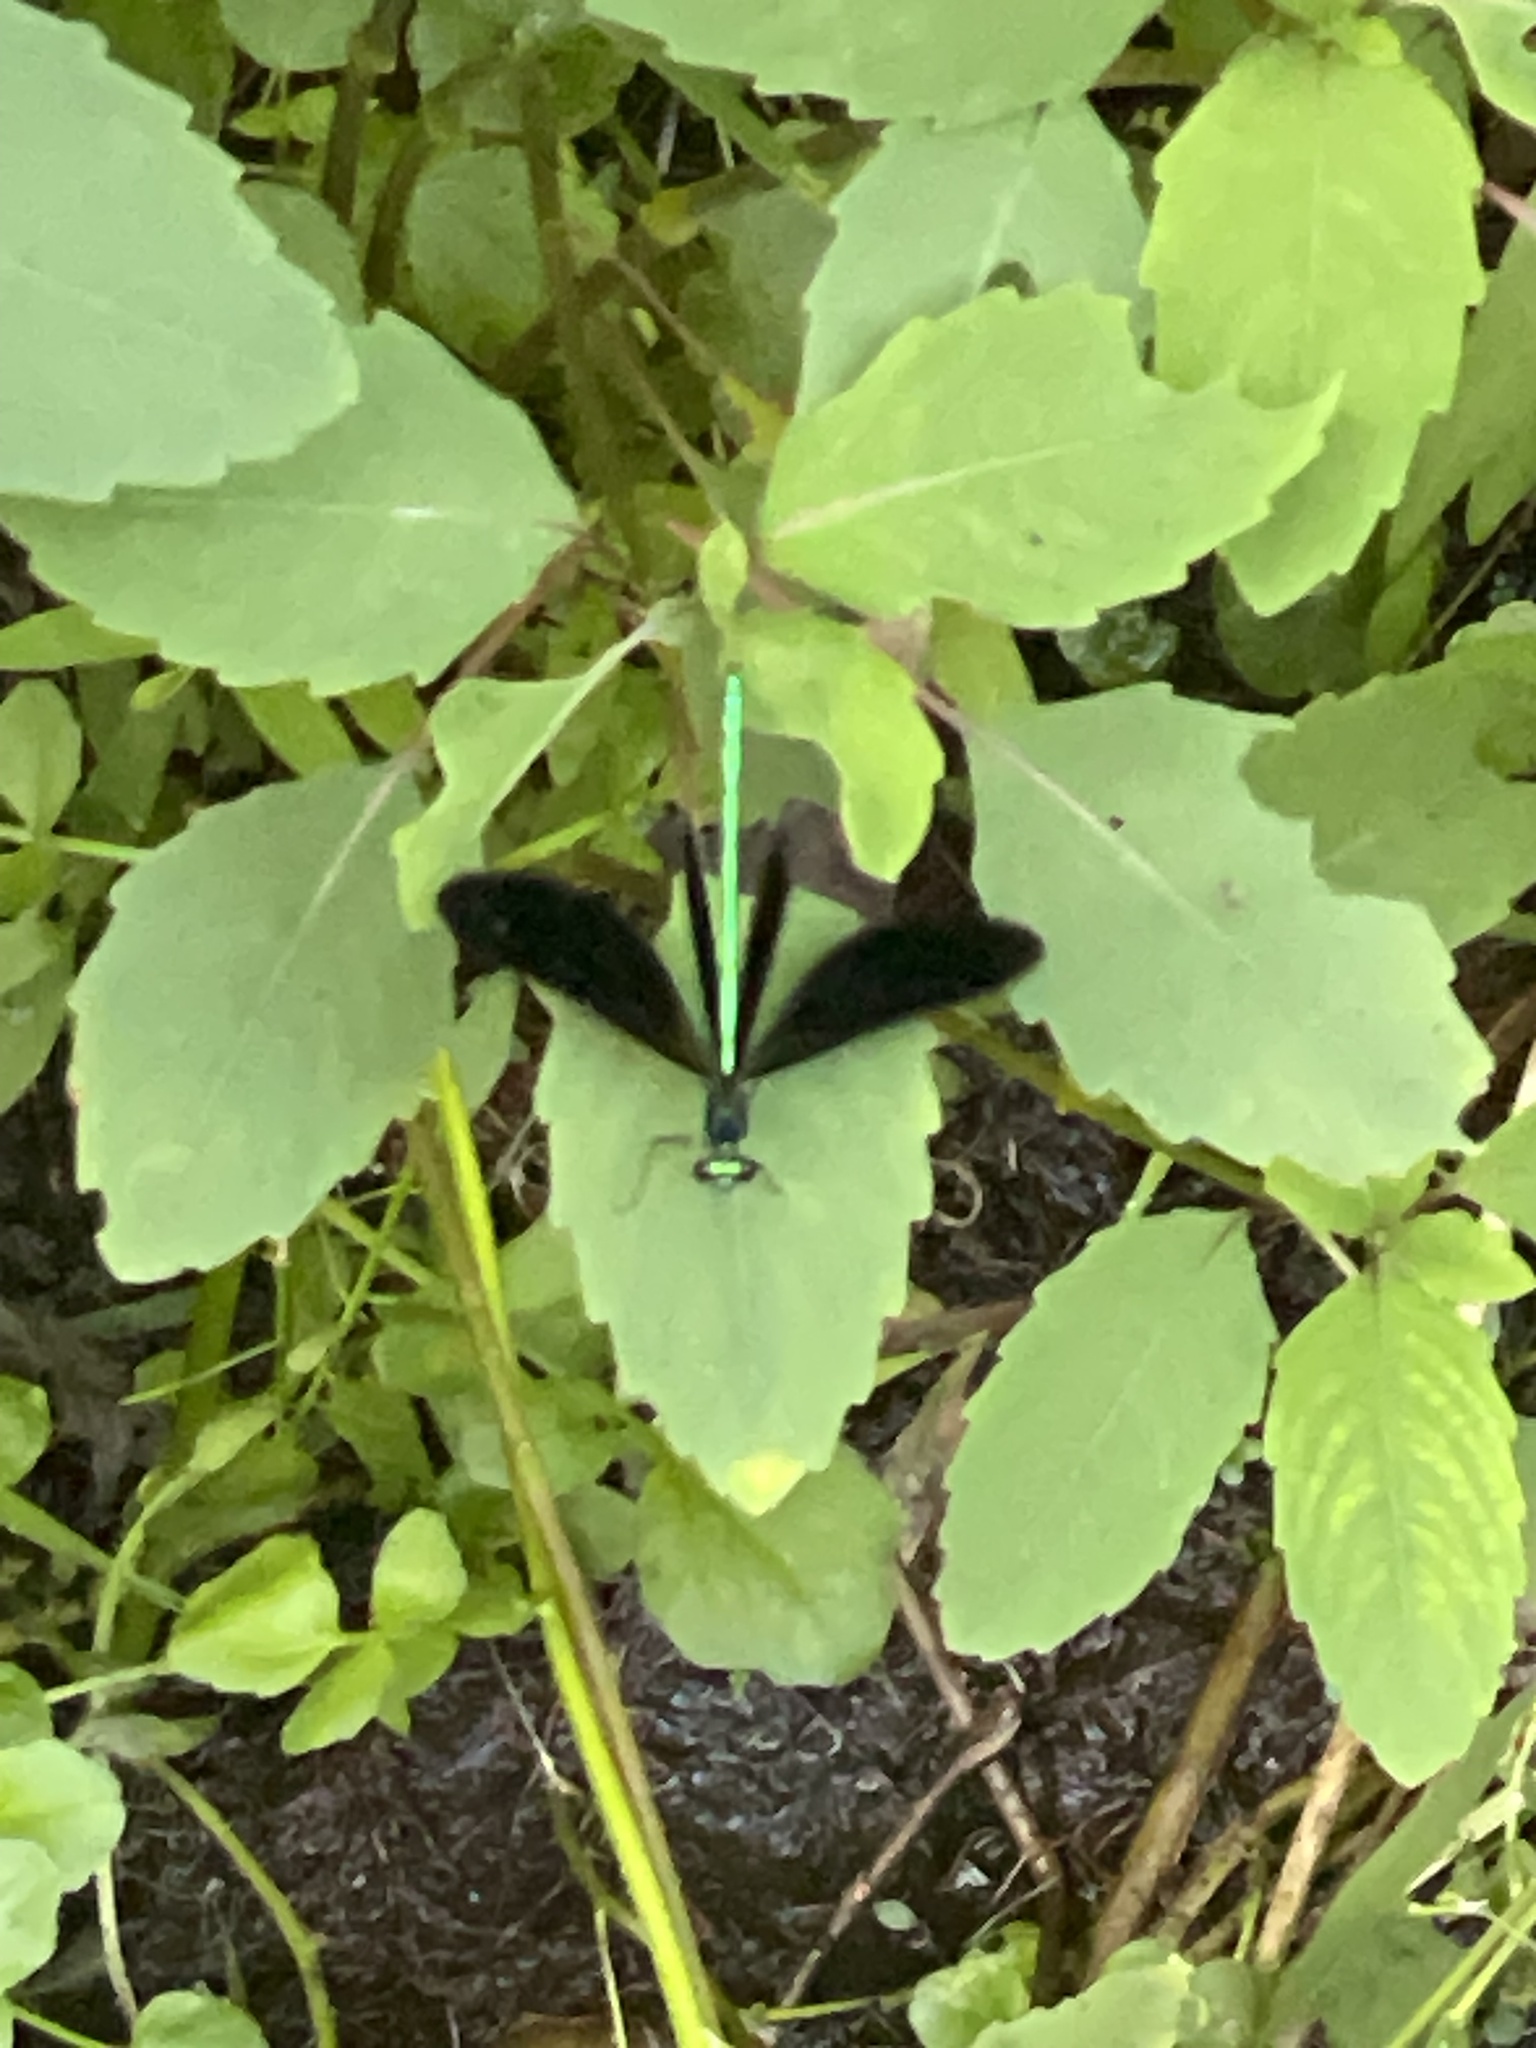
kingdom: Animalia
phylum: Arthropoda
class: Insecta
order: Odonata
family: Calopterygidae
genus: Calopteryx
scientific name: Calopteryx maculata
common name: Ebony jewelwing
